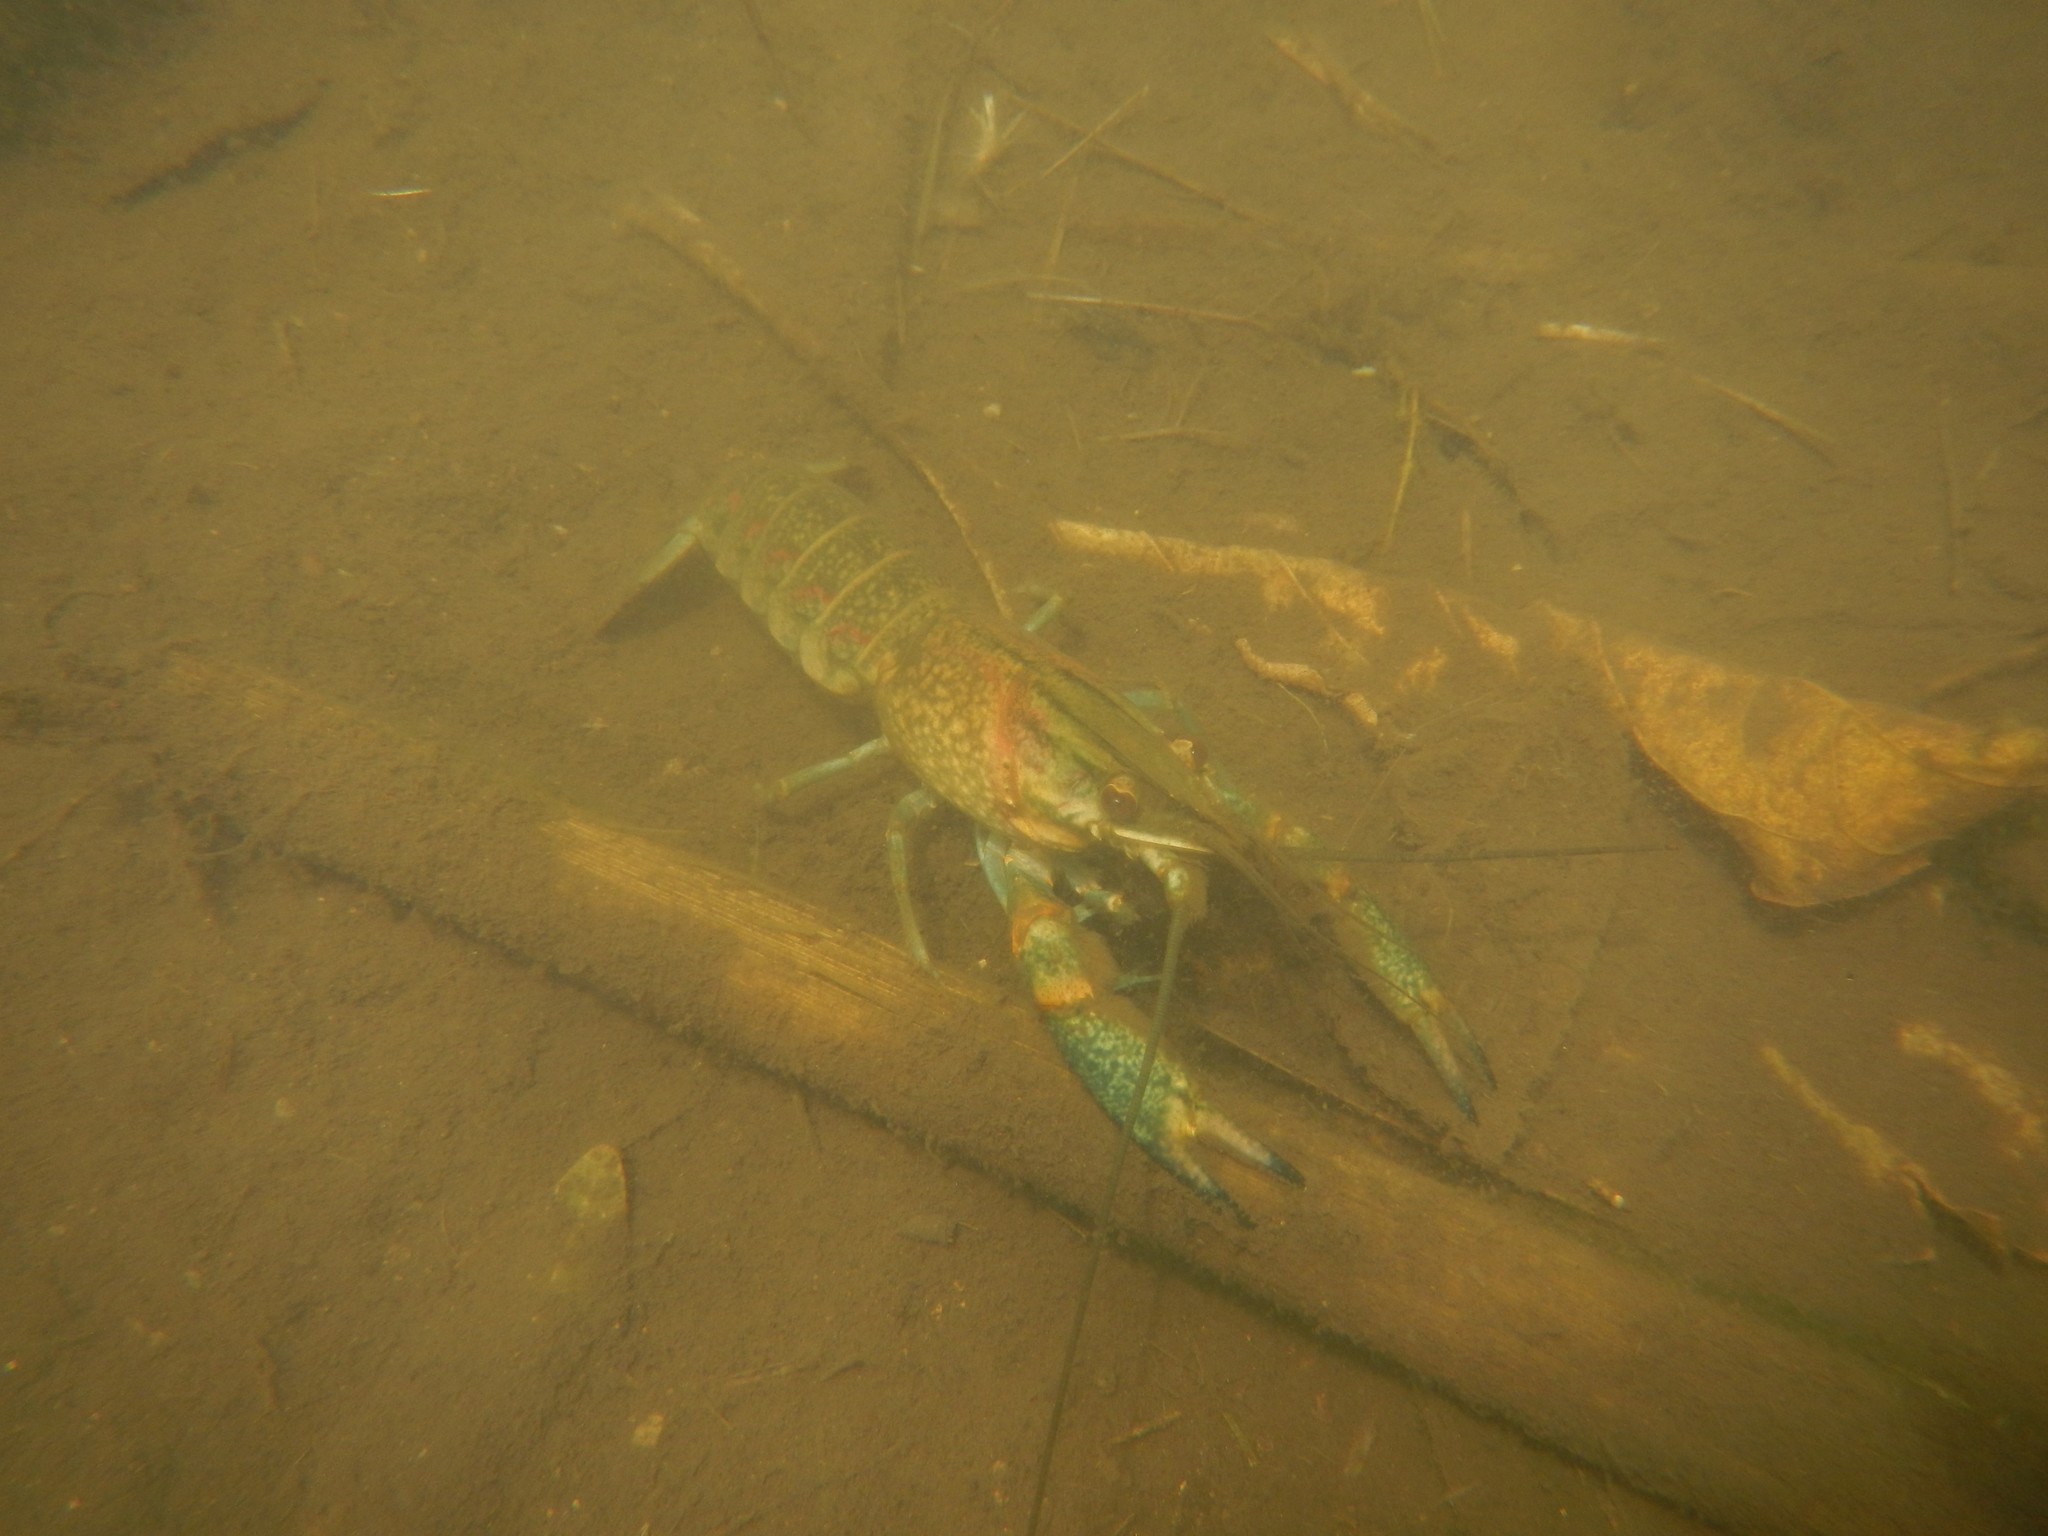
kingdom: Animalia
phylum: Arthropoda
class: Malacostraca
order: Decapoda
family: Parastacidae
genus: Cherax
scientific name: Cherax quadricarinatus
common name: Redclaw
